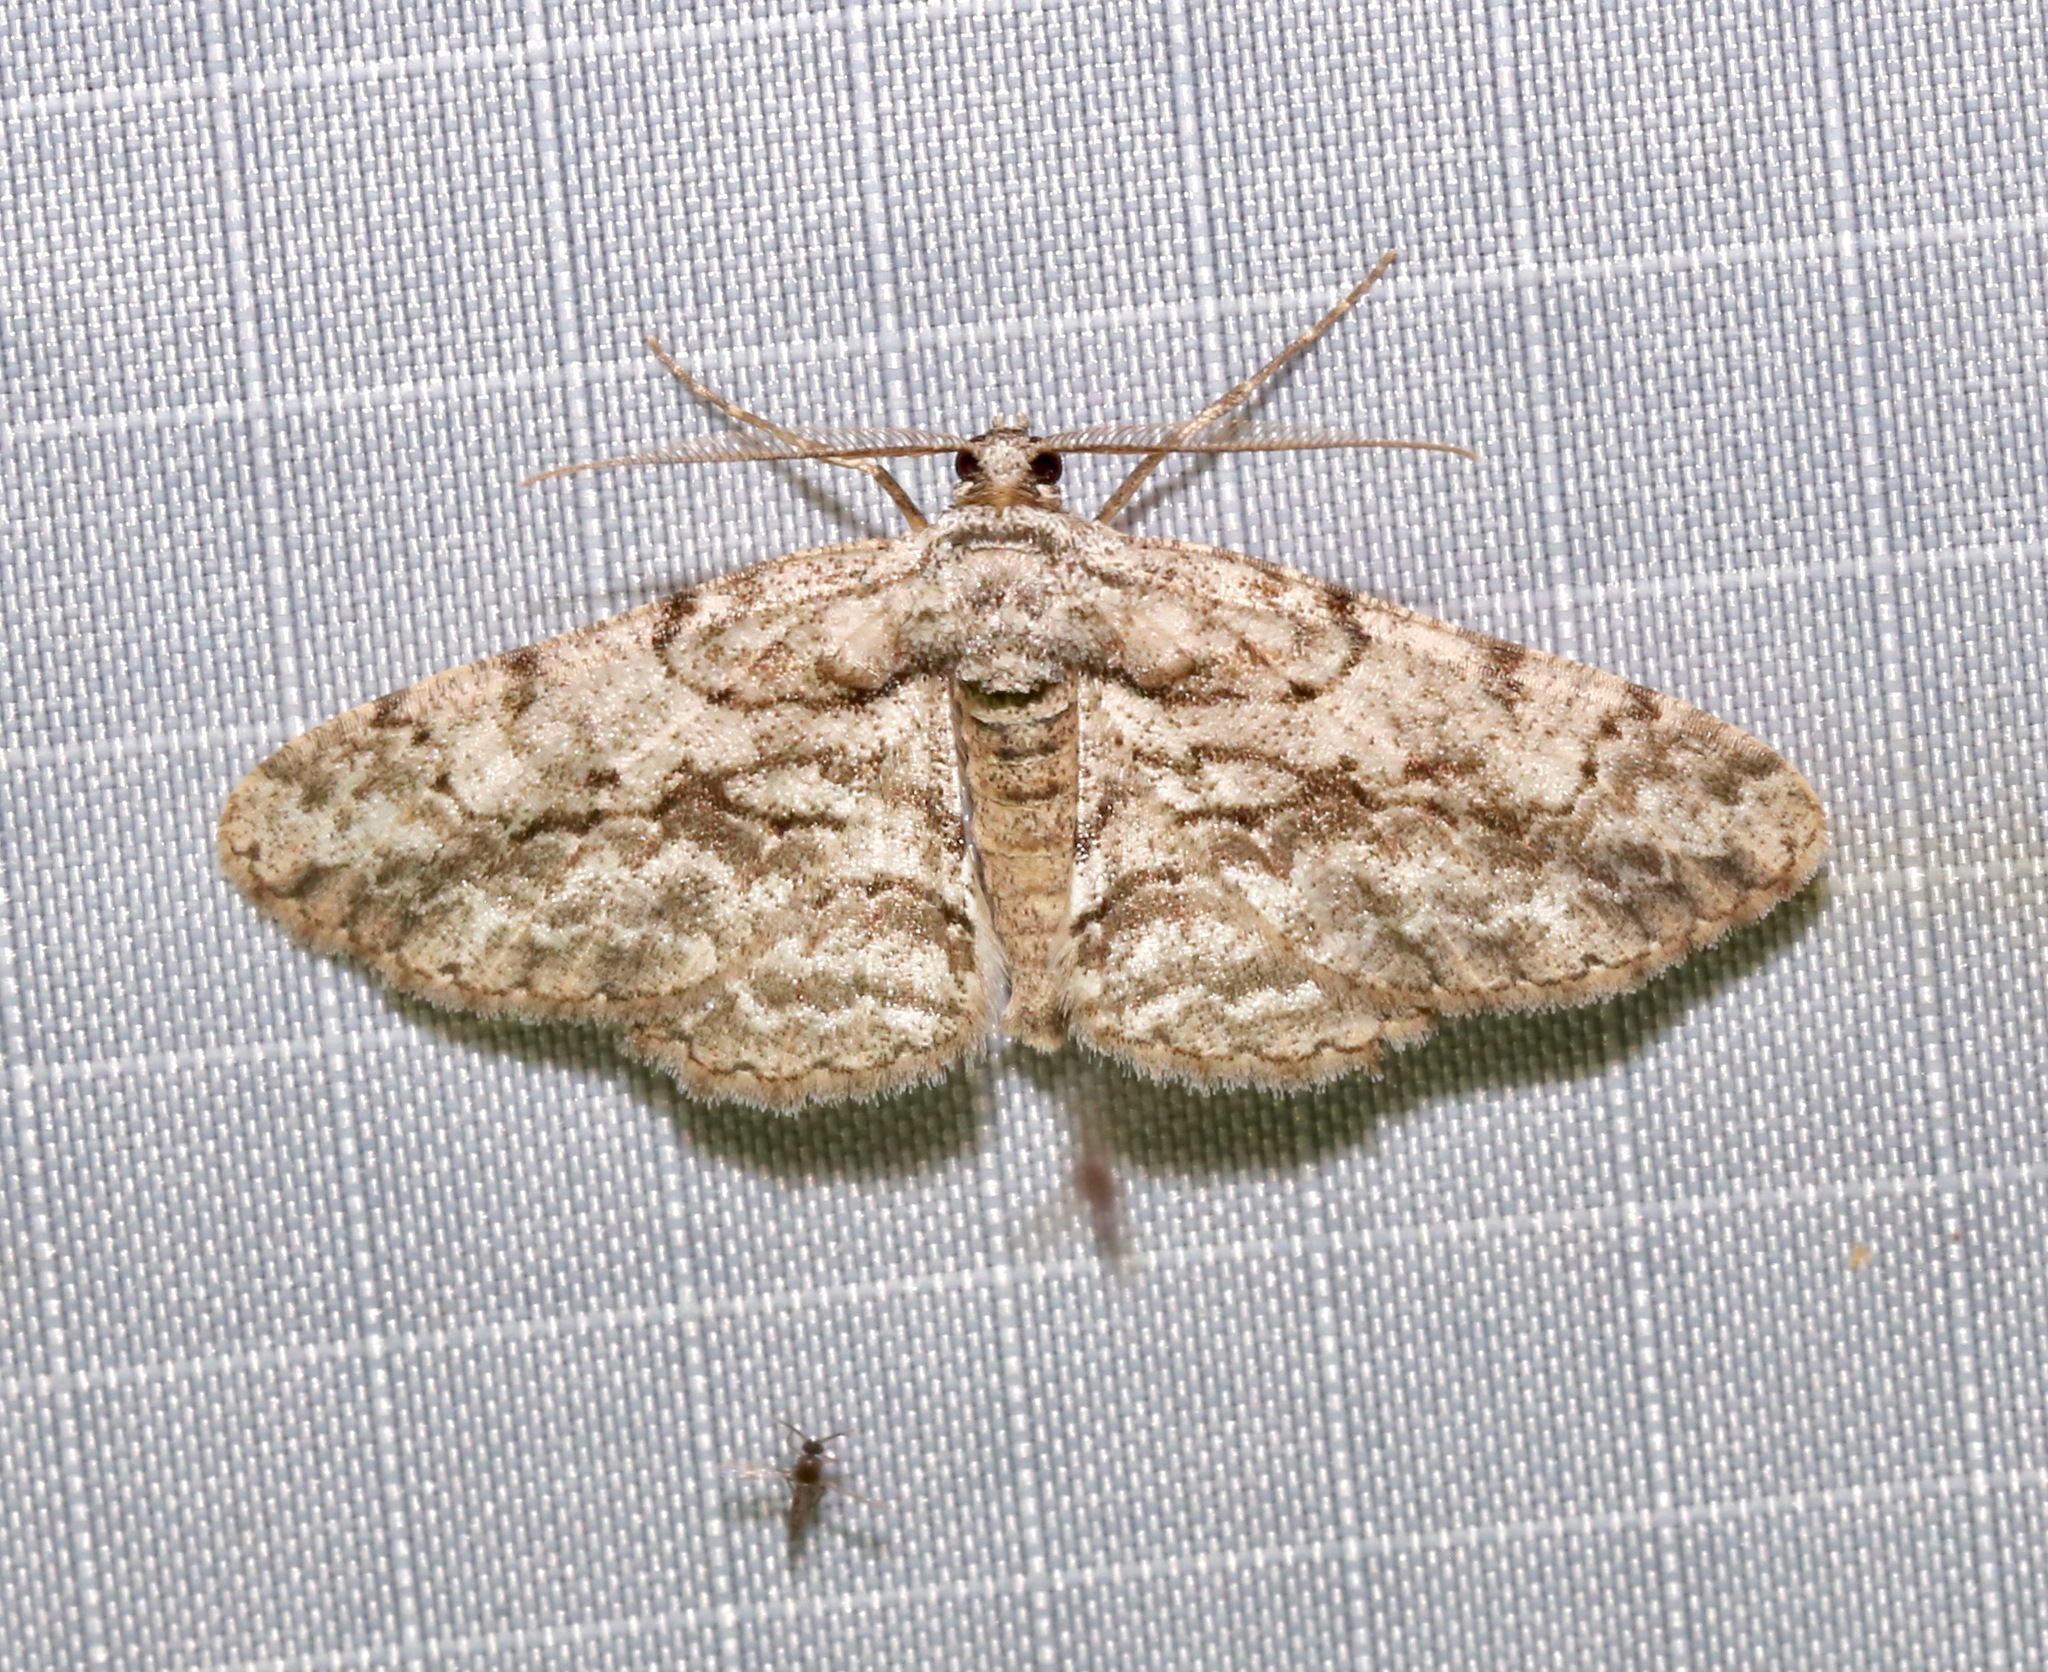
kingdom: Animalia
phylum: Arthropoda
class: Insecta
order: Lepidoptera
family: Geometridae
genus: Anavitrinella
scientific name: Anavitrinella pampinaria
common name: Common gray
